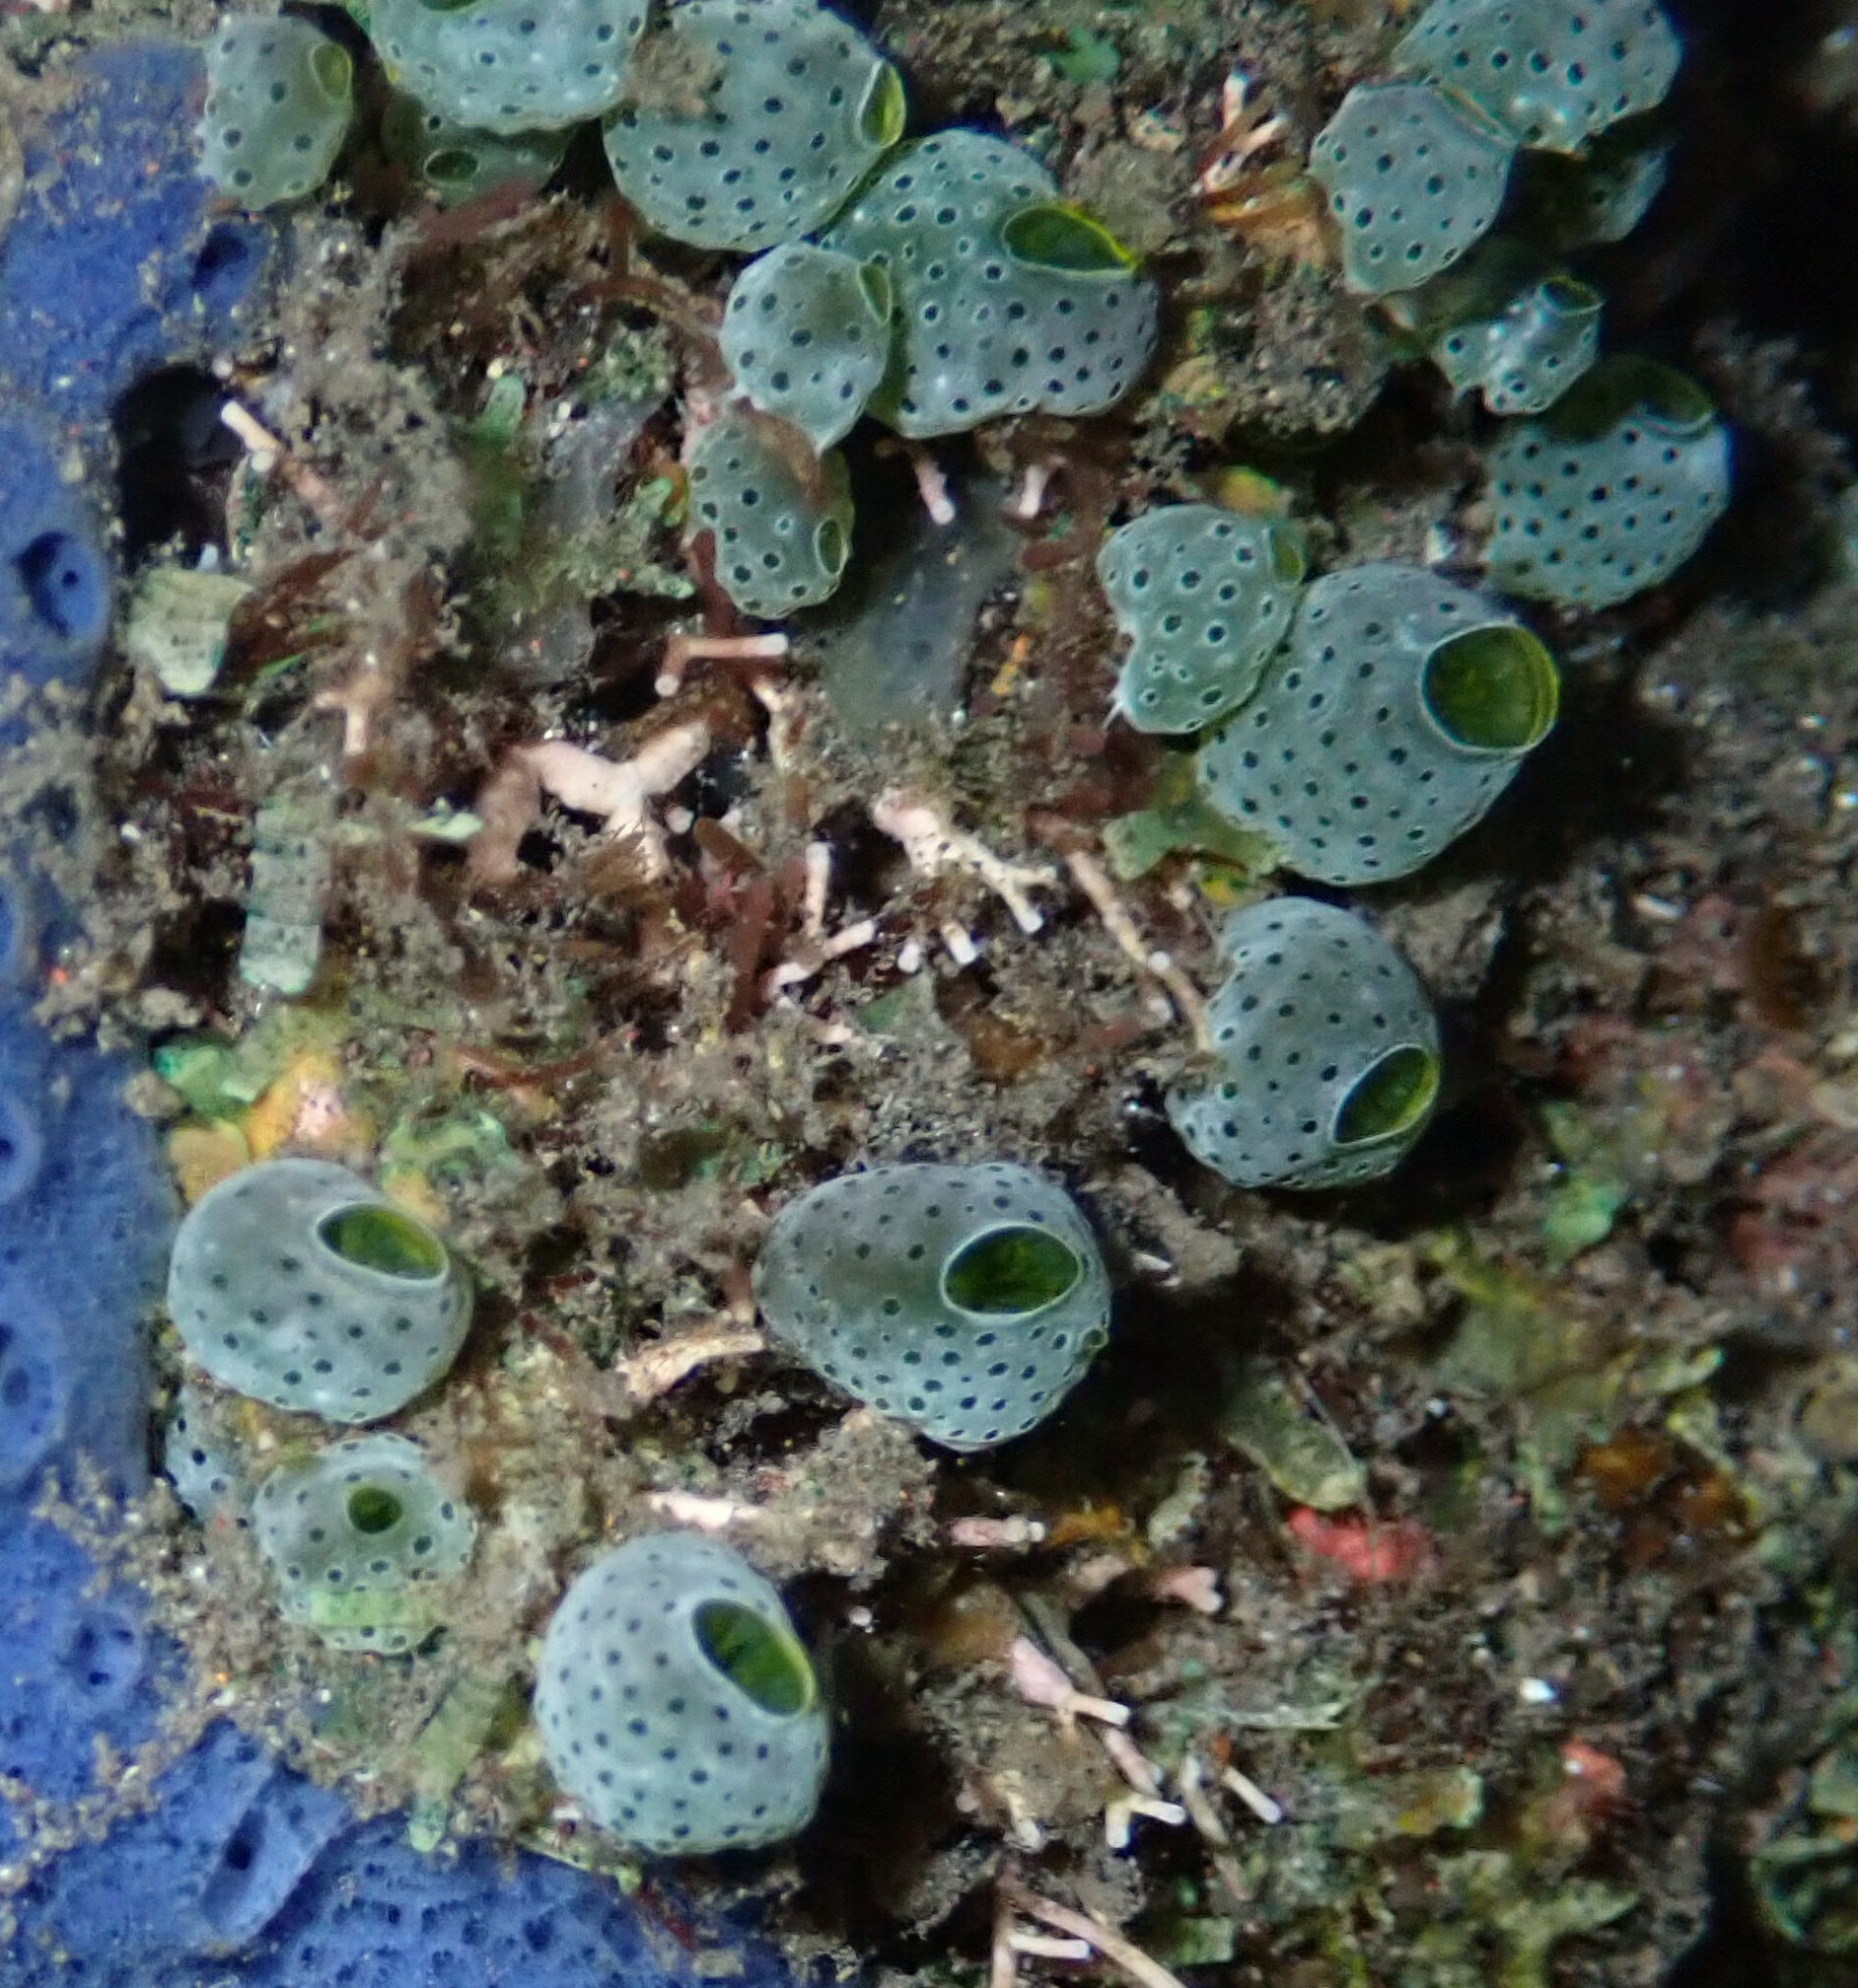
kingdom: Animalia
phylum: Chordata
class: Ascidiacea
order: Aplousobranchia
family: Didemnidae
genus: Didemnum
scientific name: Didemnum molle
